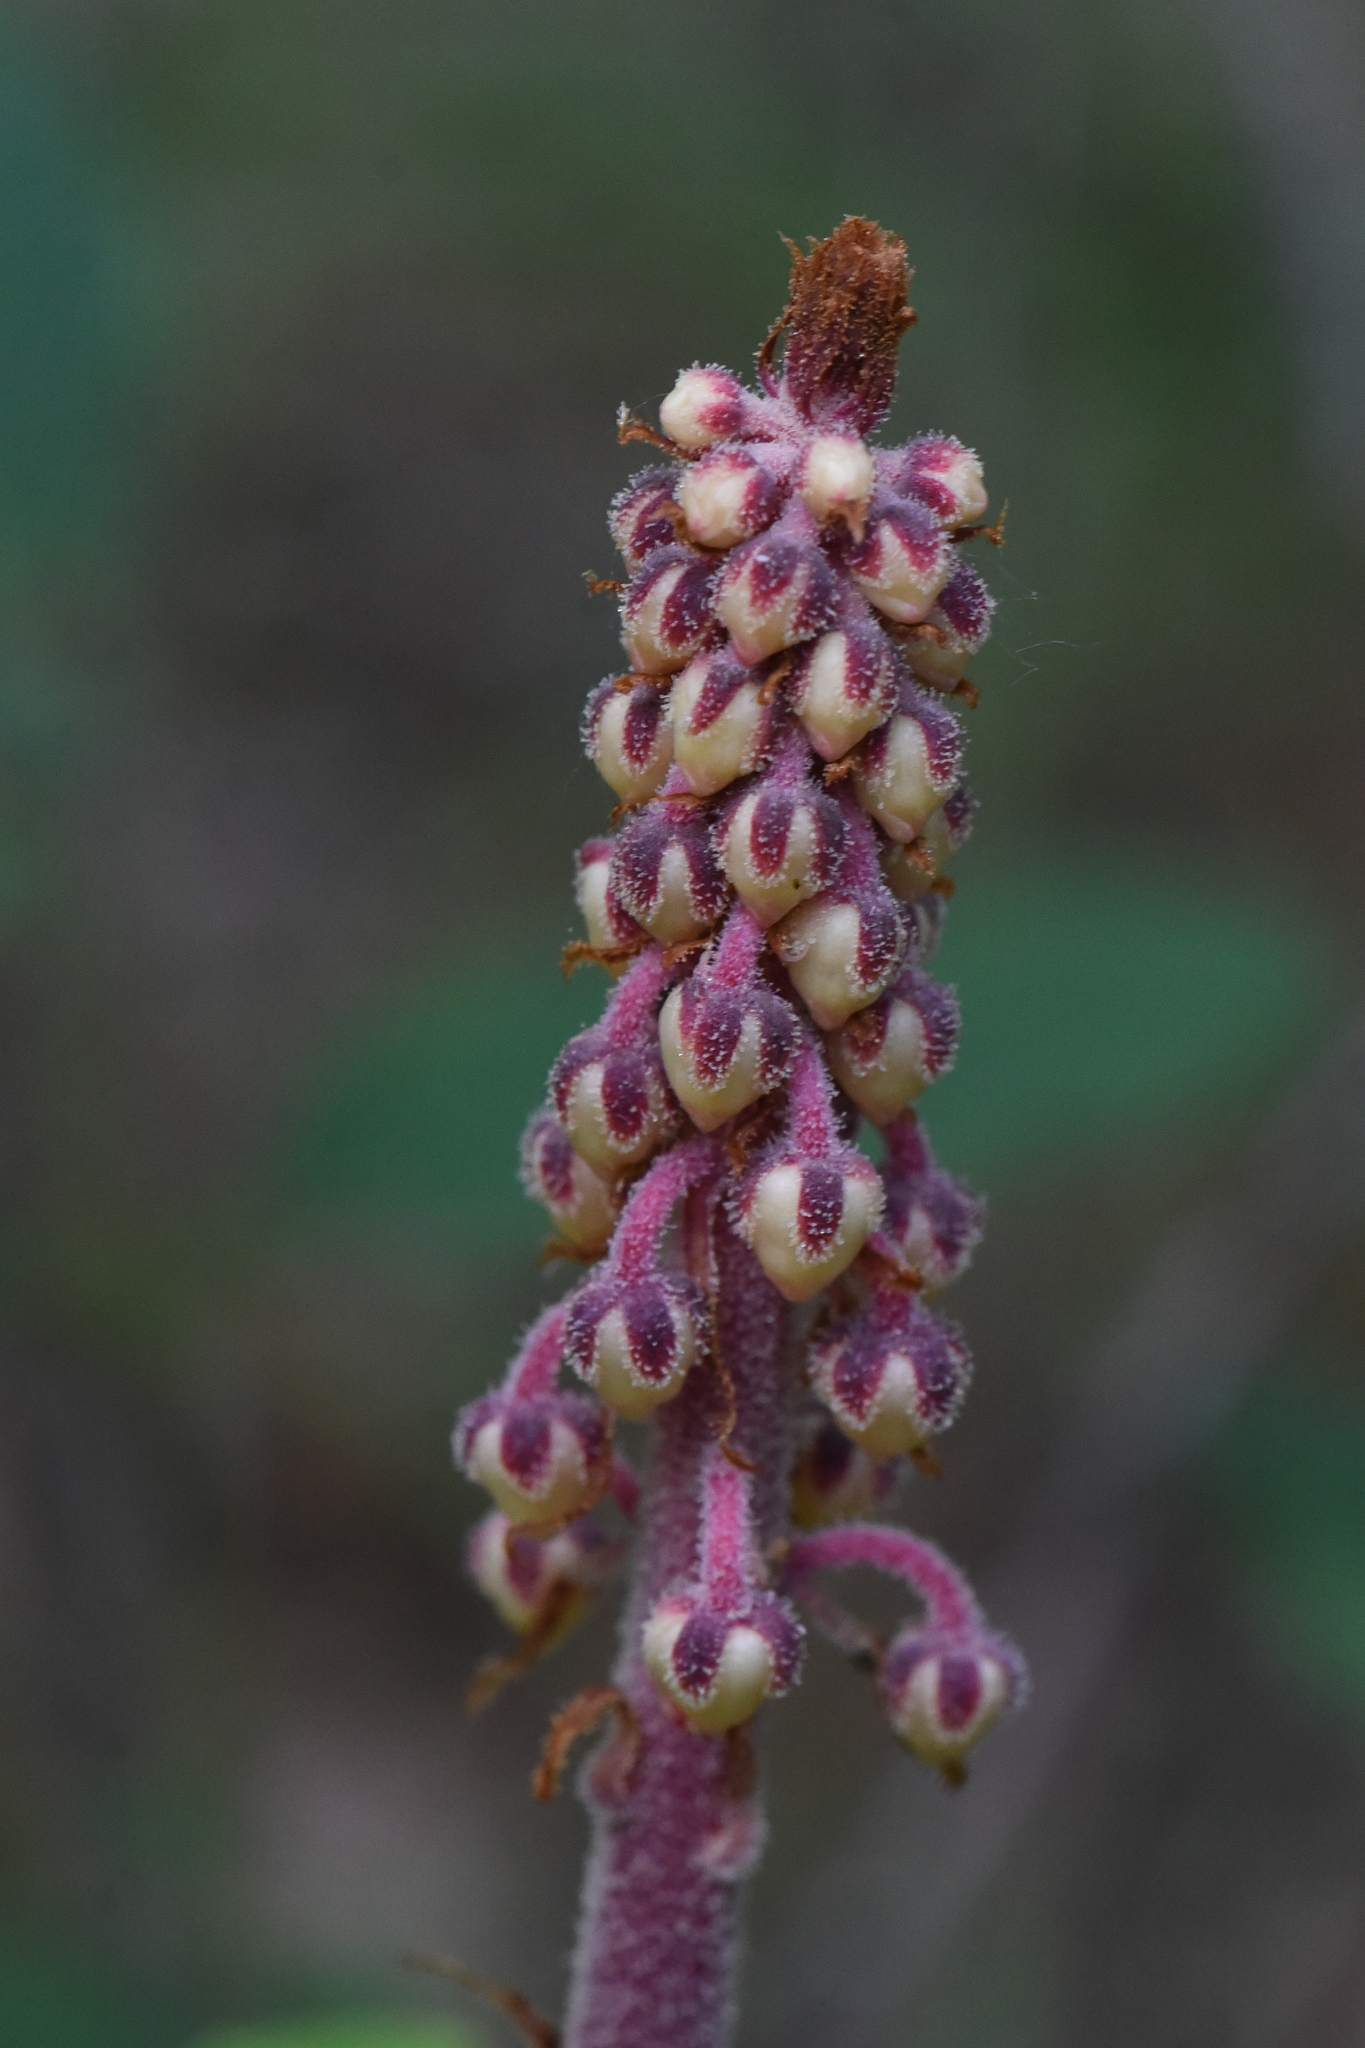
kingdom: Plantae
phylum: Tracheophyta
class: Magnoliopsida
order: Ericales
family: Ericaceae
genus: Pterospora
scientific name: Pterospora andromedea
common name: Giant bird's-nest
